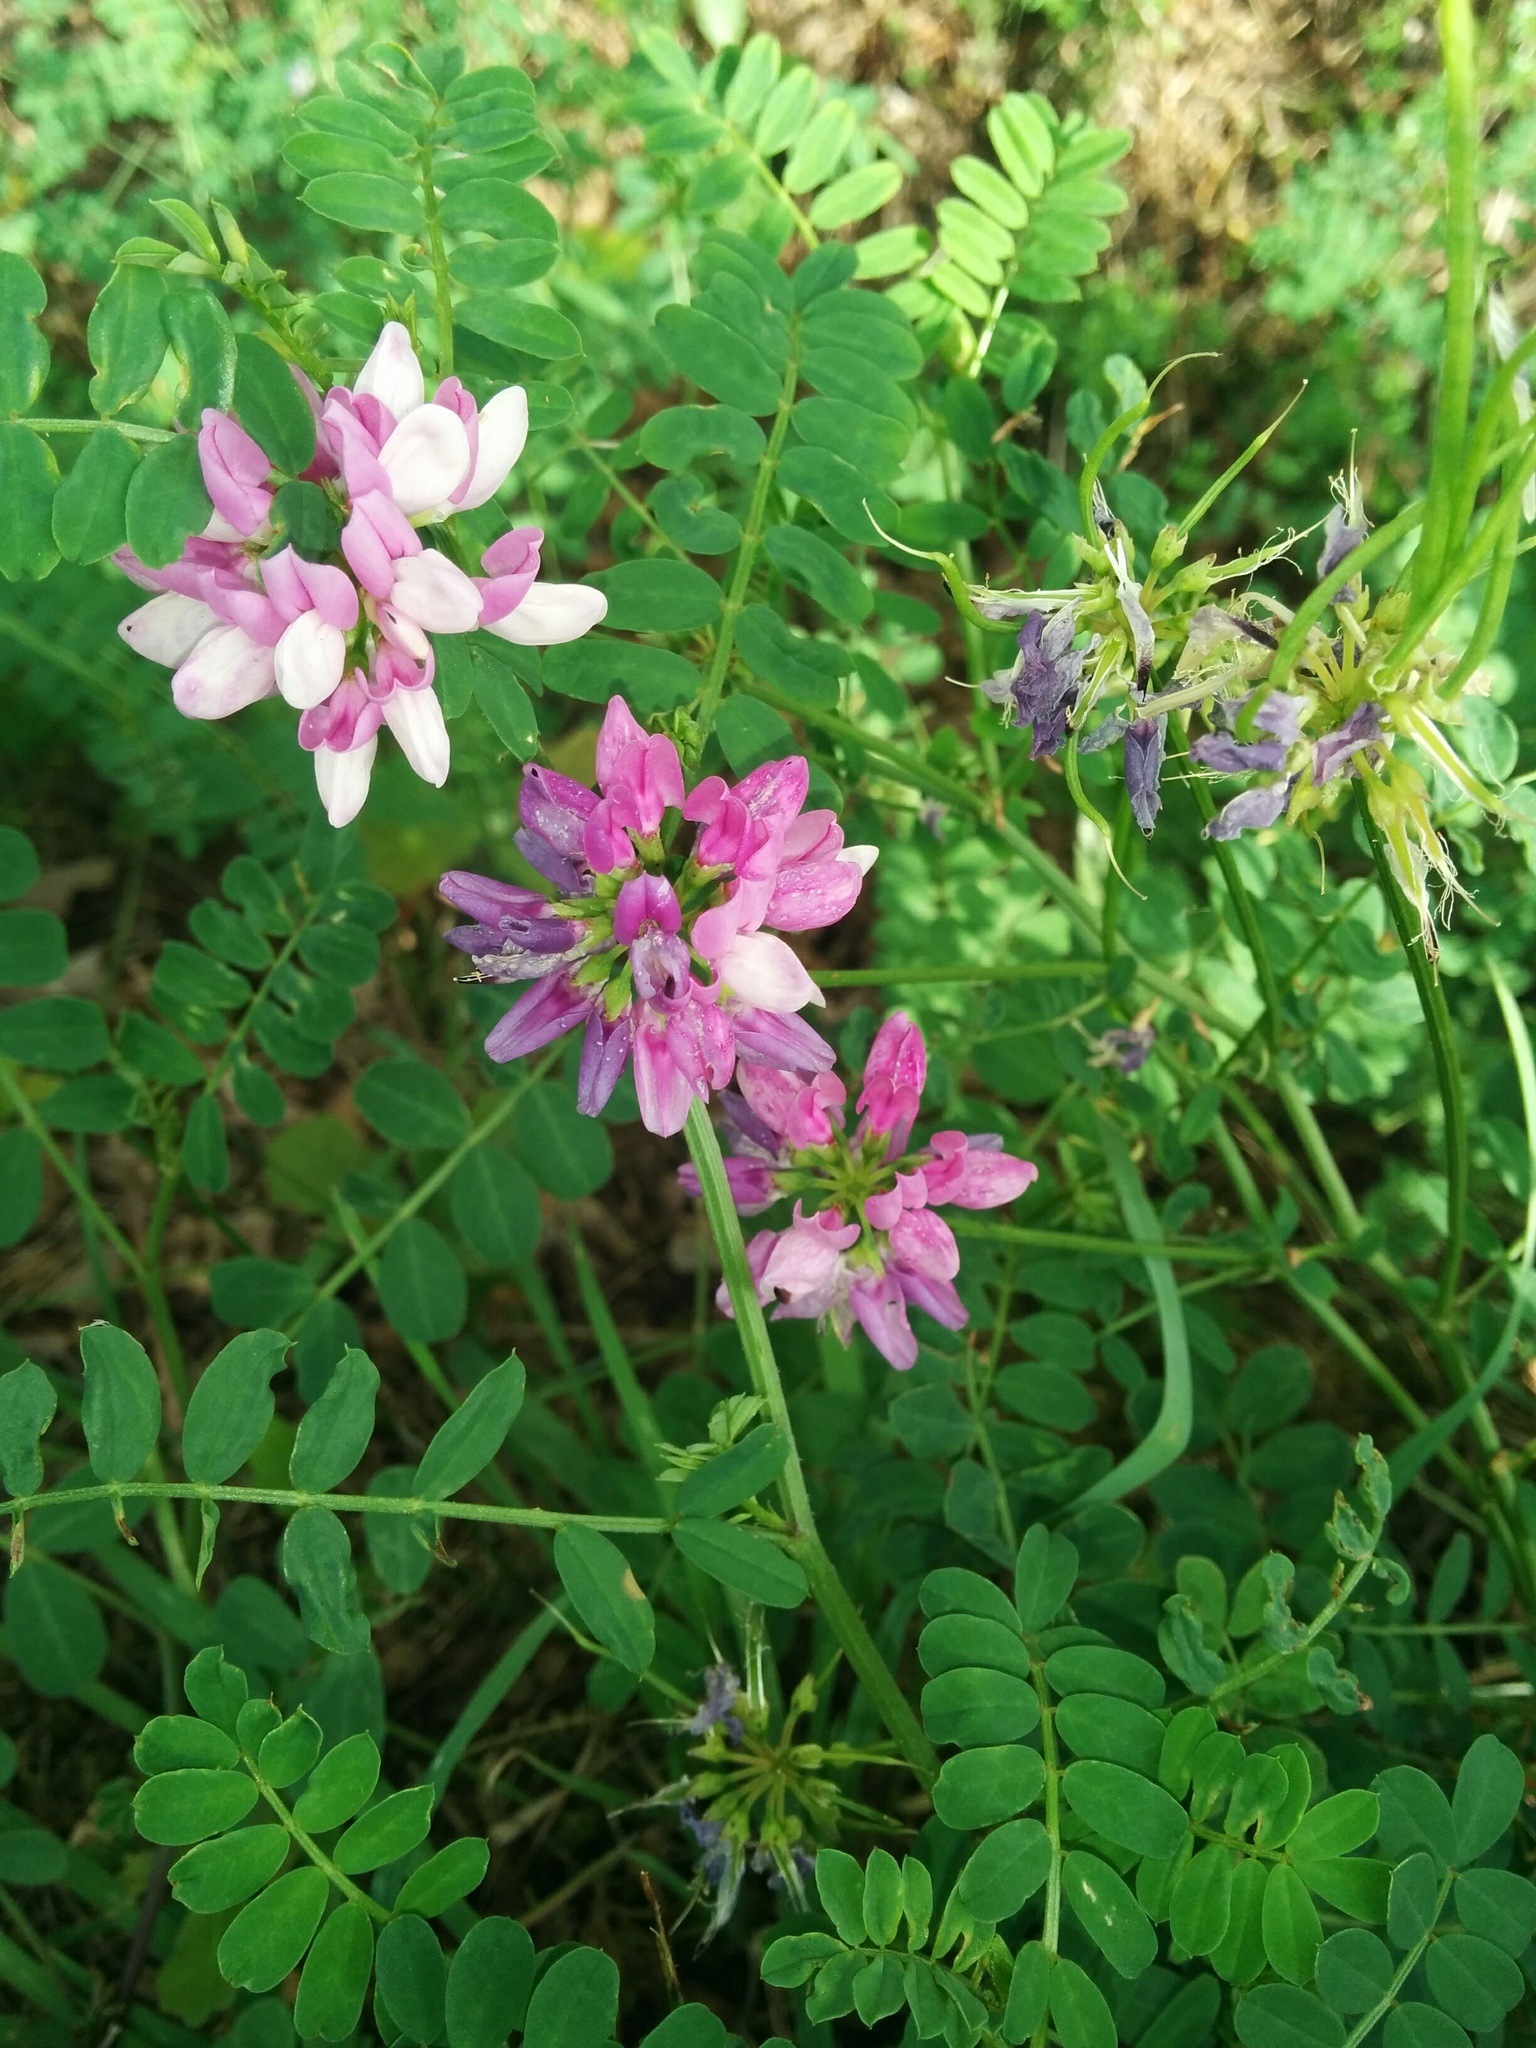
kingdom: Plantae
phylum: Tracheophyta
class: Magnoliopsida
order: Fabales
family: Fabaceae
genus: Coronilla
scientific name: Coronilla varia
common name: Crownvetch
